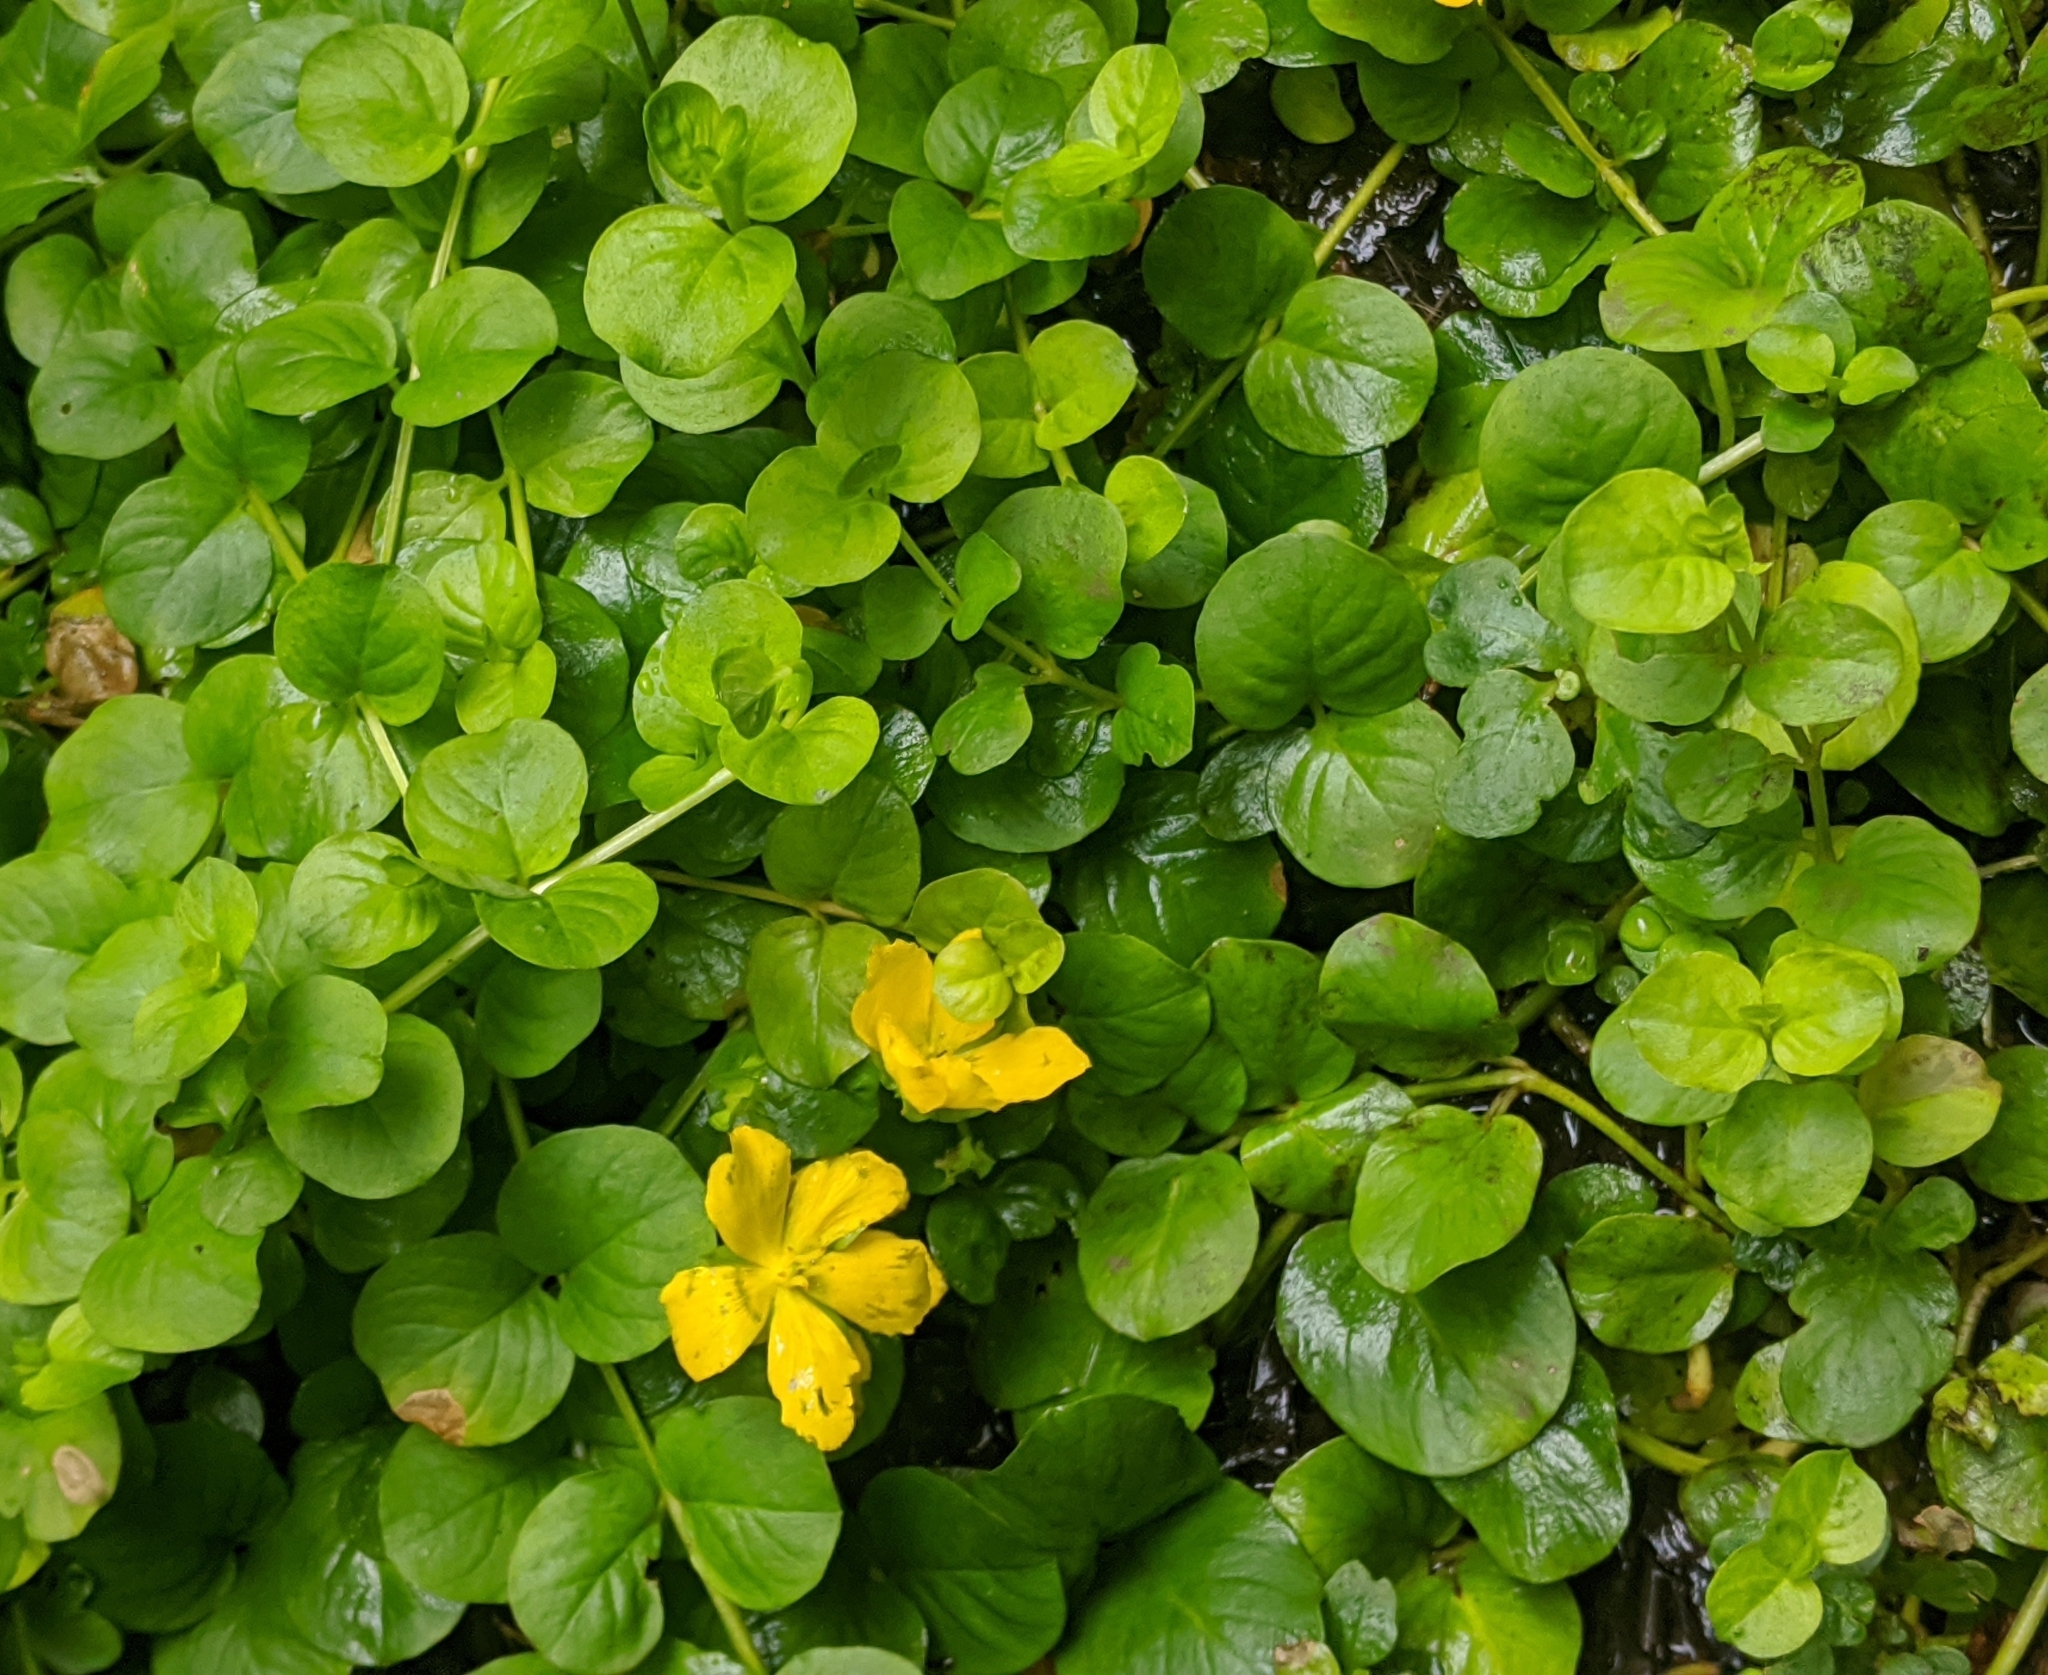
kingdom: Plantae
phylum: Tracheophyta
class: Magnoliopsida
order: Ericales
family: Primulaceae
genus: Lysimachia
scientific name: Lysimachia nummularia
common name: Moneywort
